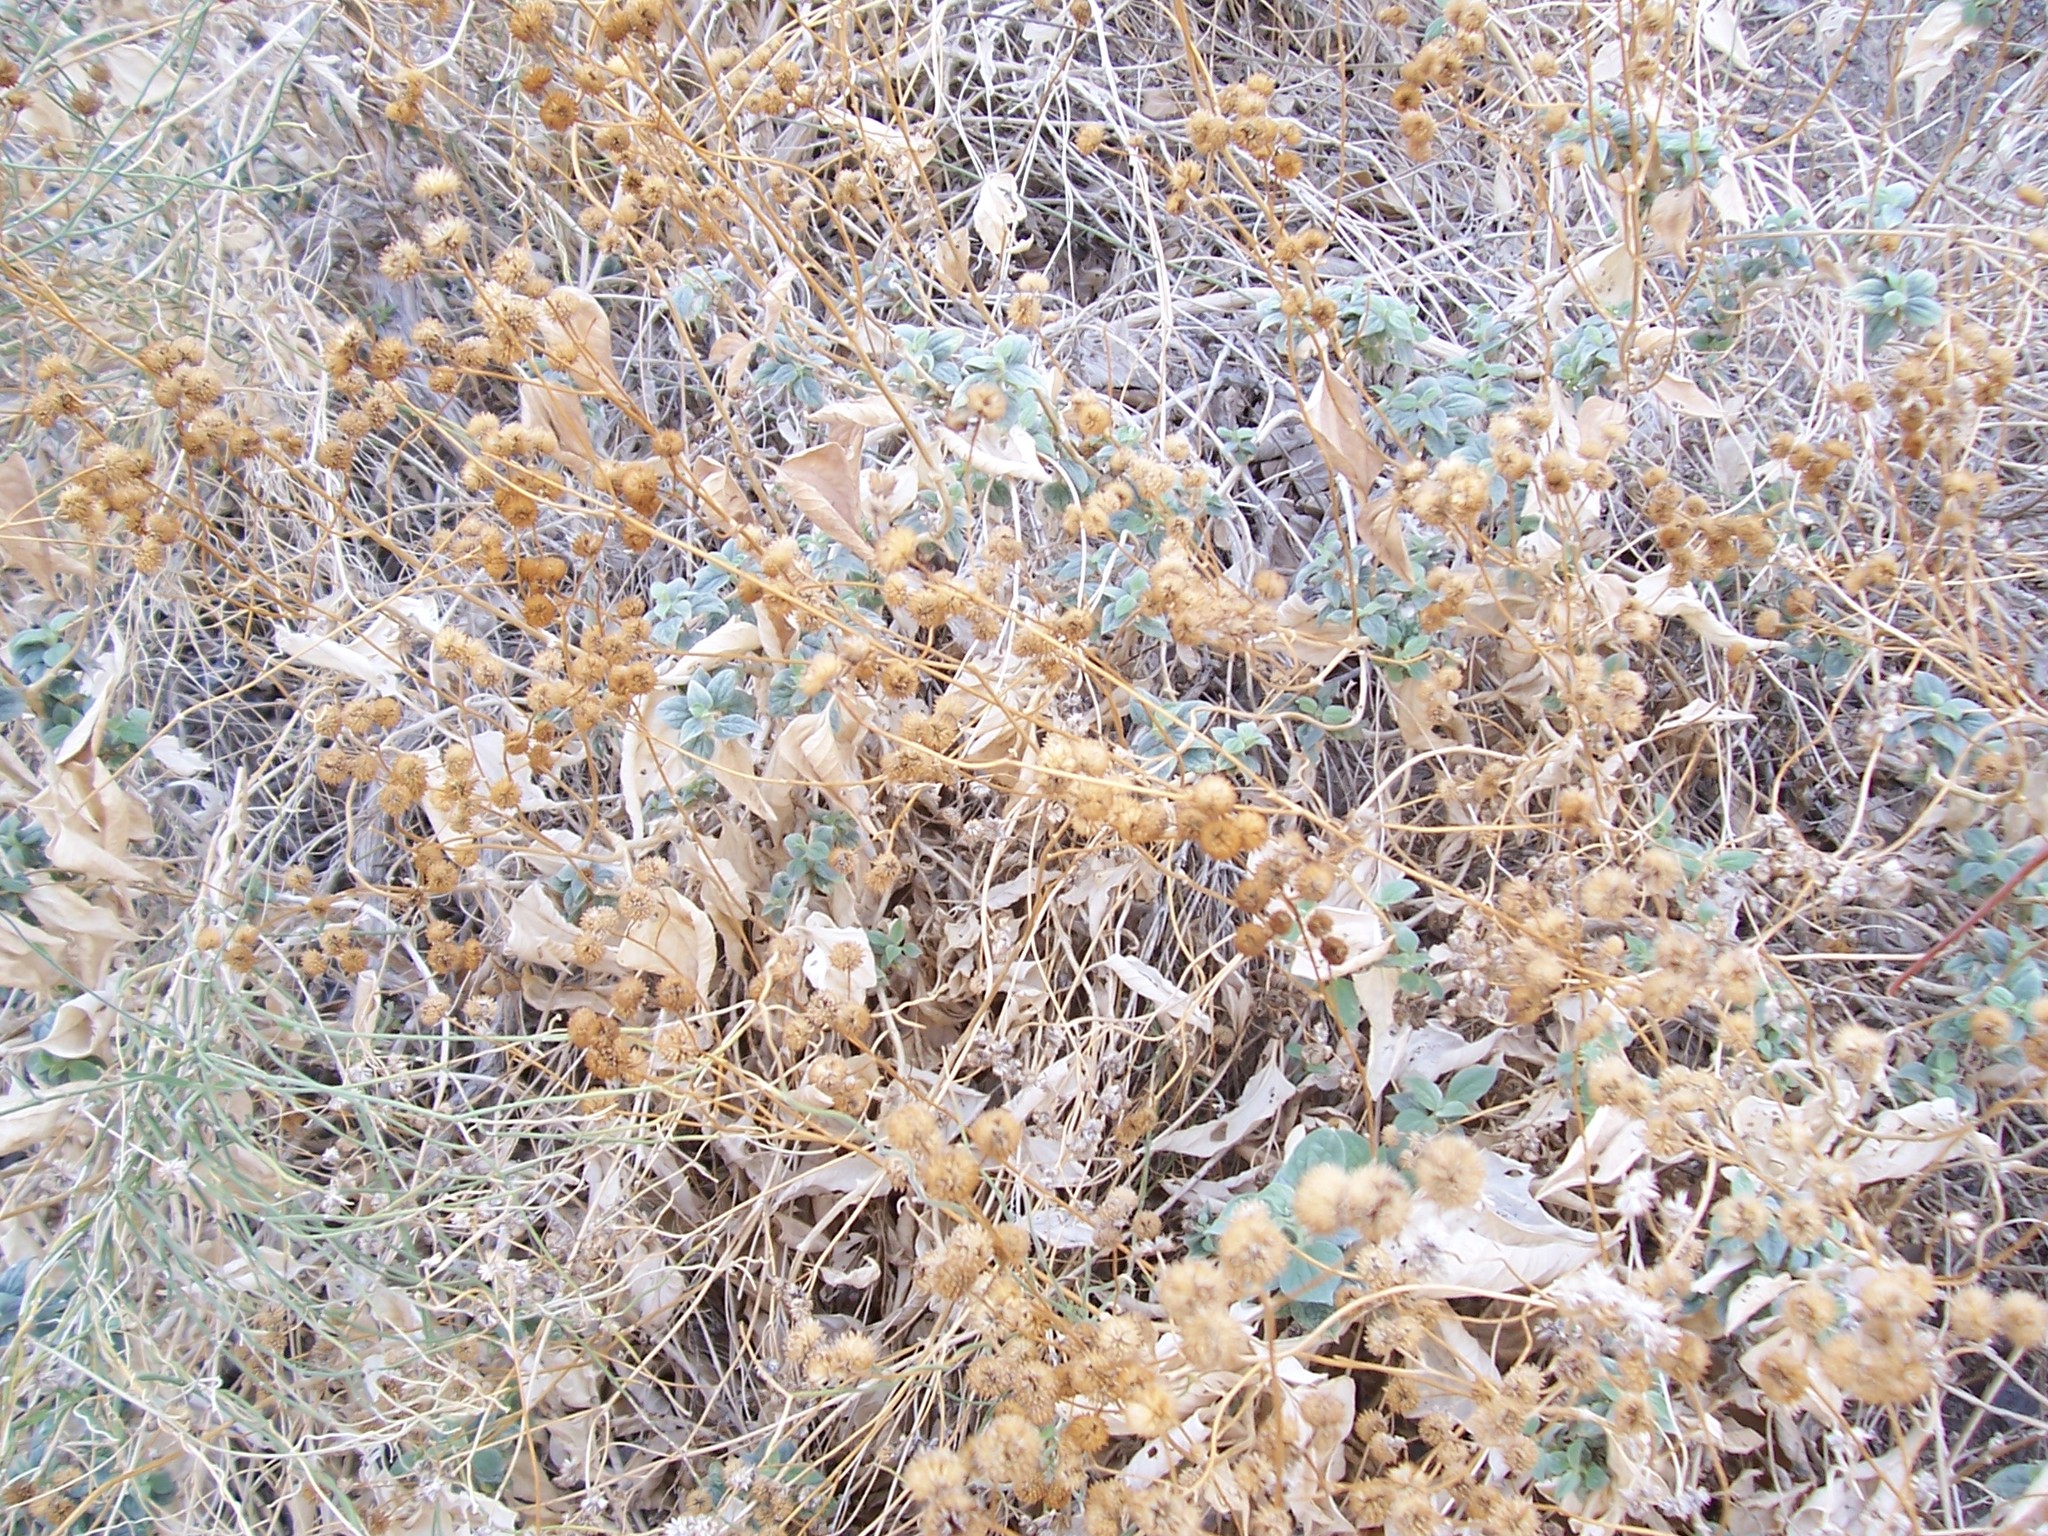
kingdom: Plantae
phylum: Tracheophyta
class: Magnoliopsida
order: Asterales
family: Asteraceae
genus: Bahiopsis
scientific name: Bahiopsis reticulata
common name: Death valley goldeneye
